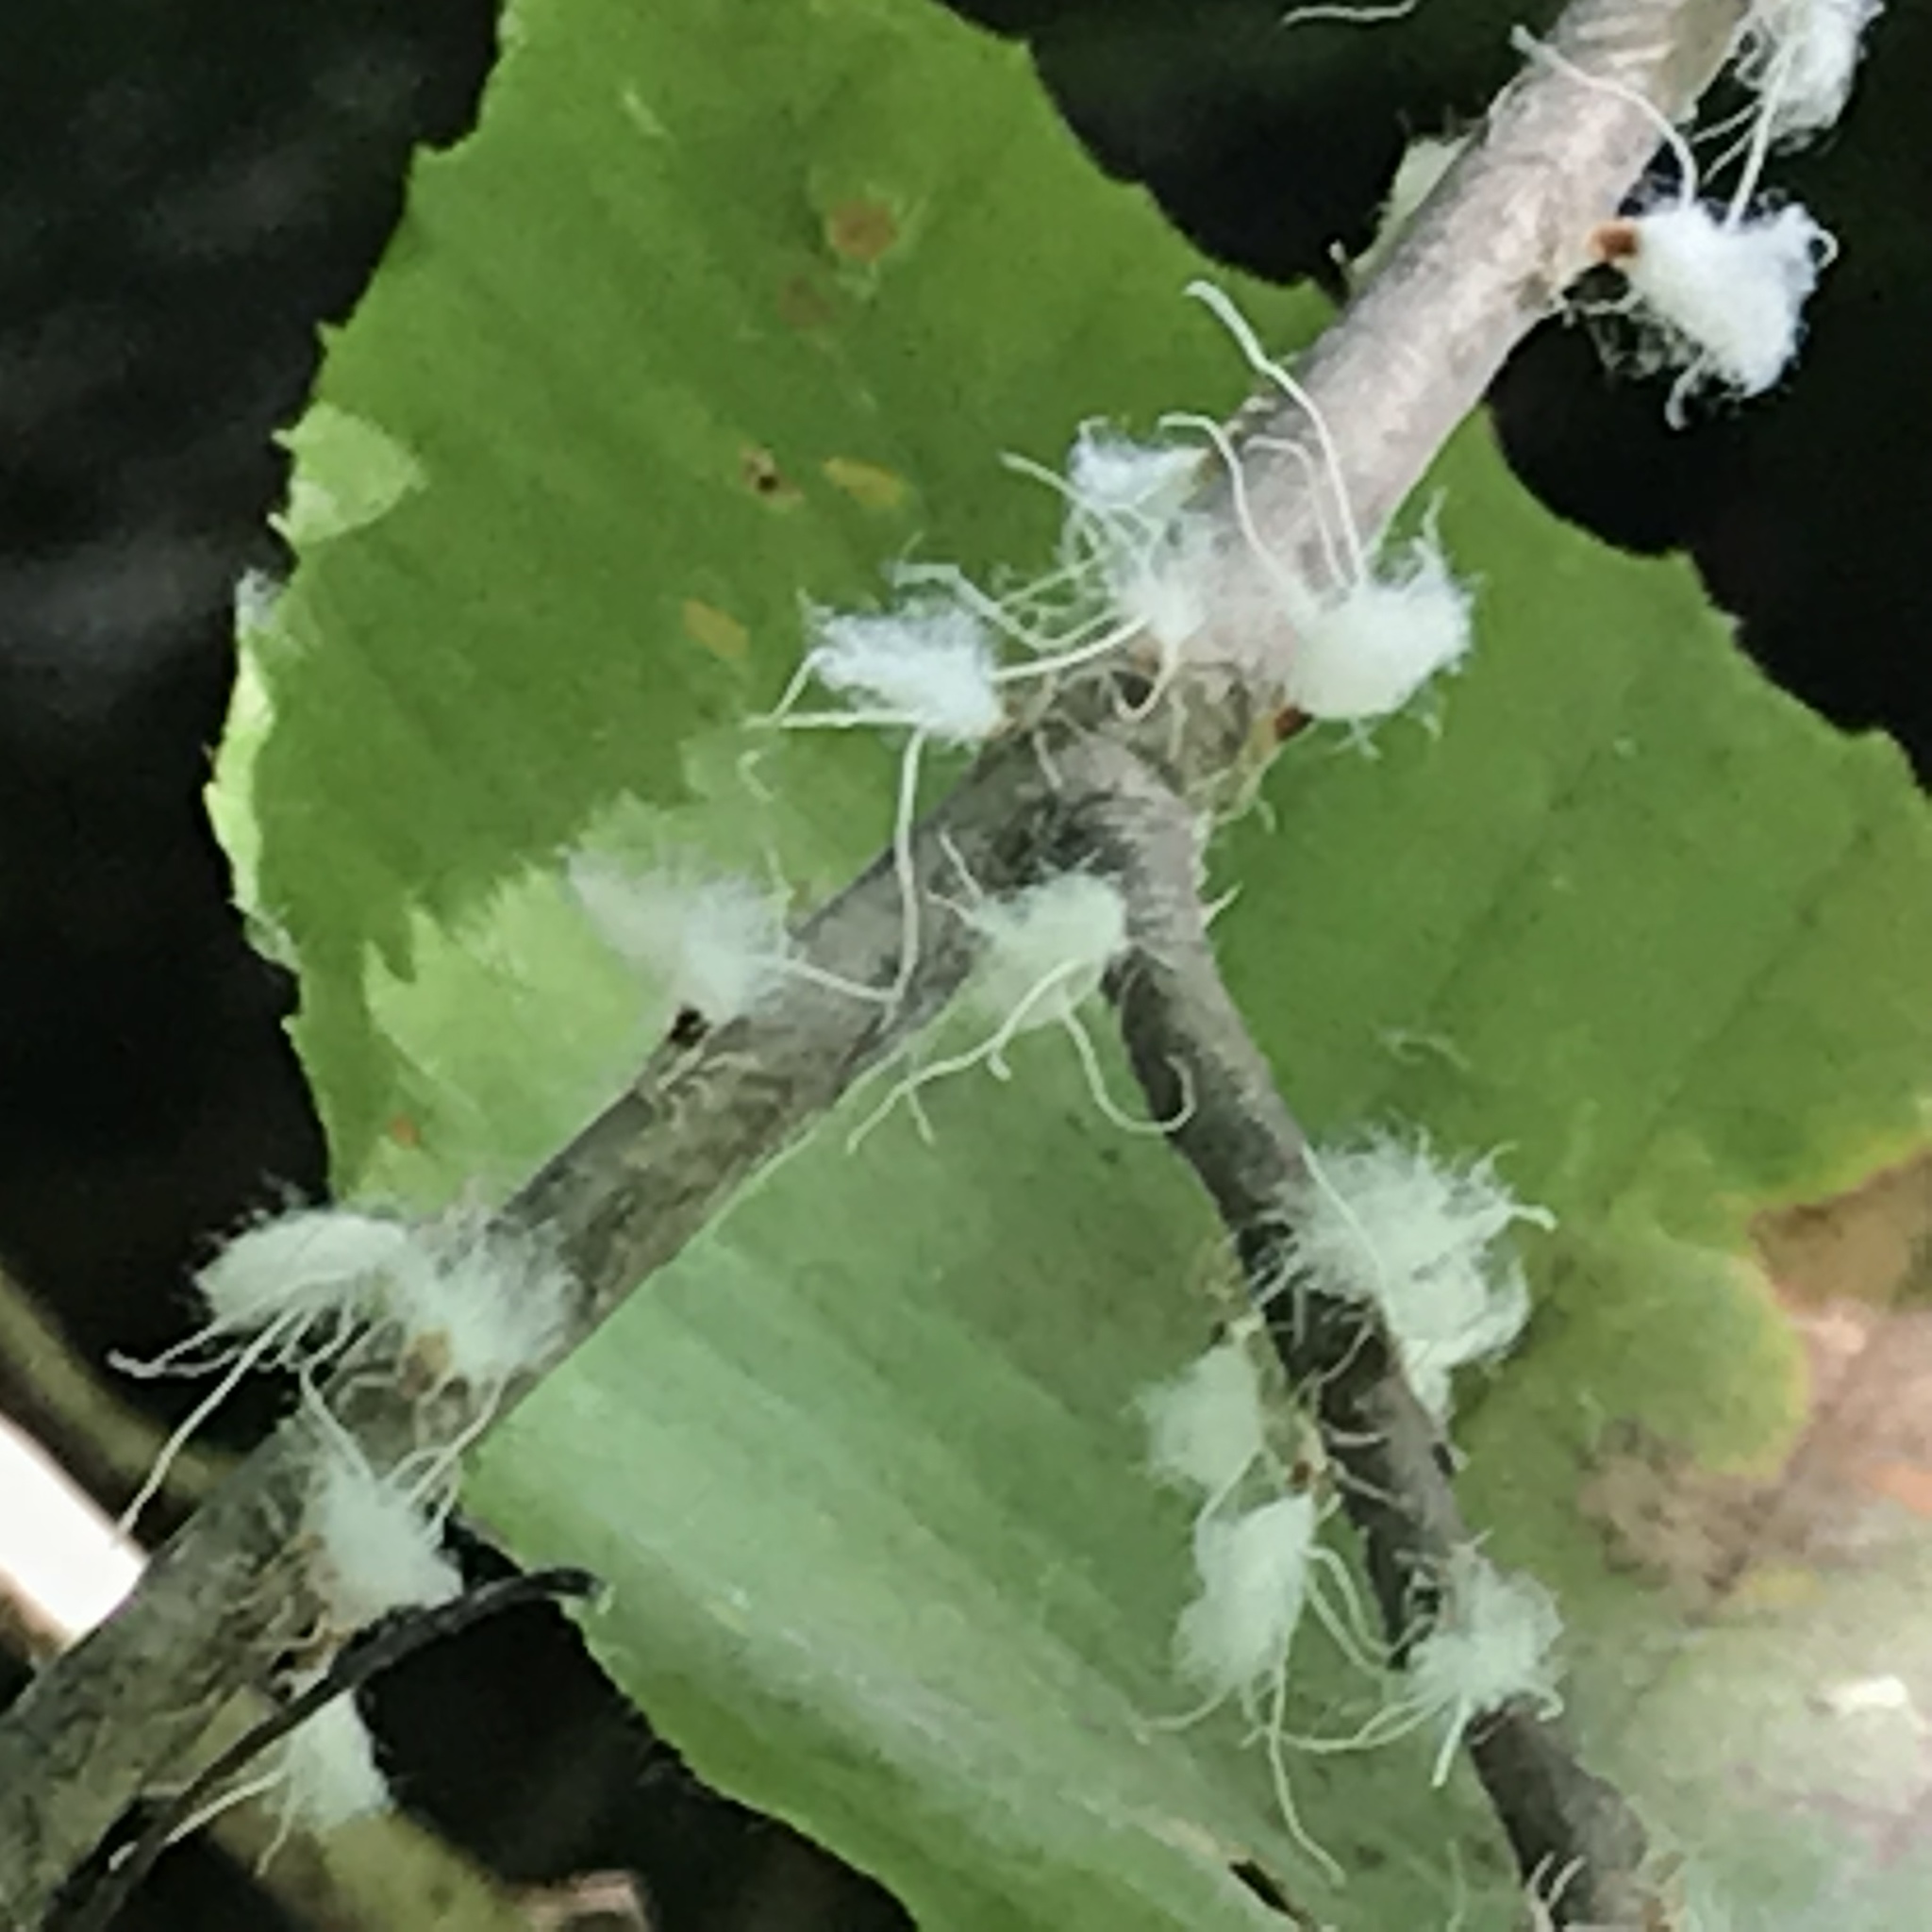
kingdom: Animalia
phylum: Arthropoda
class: Insecta
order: Hemiptera
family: Aphididae
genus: Grylloprociphilus
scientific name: Grylloprociphilus imbricator
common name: Beech blight aphid
